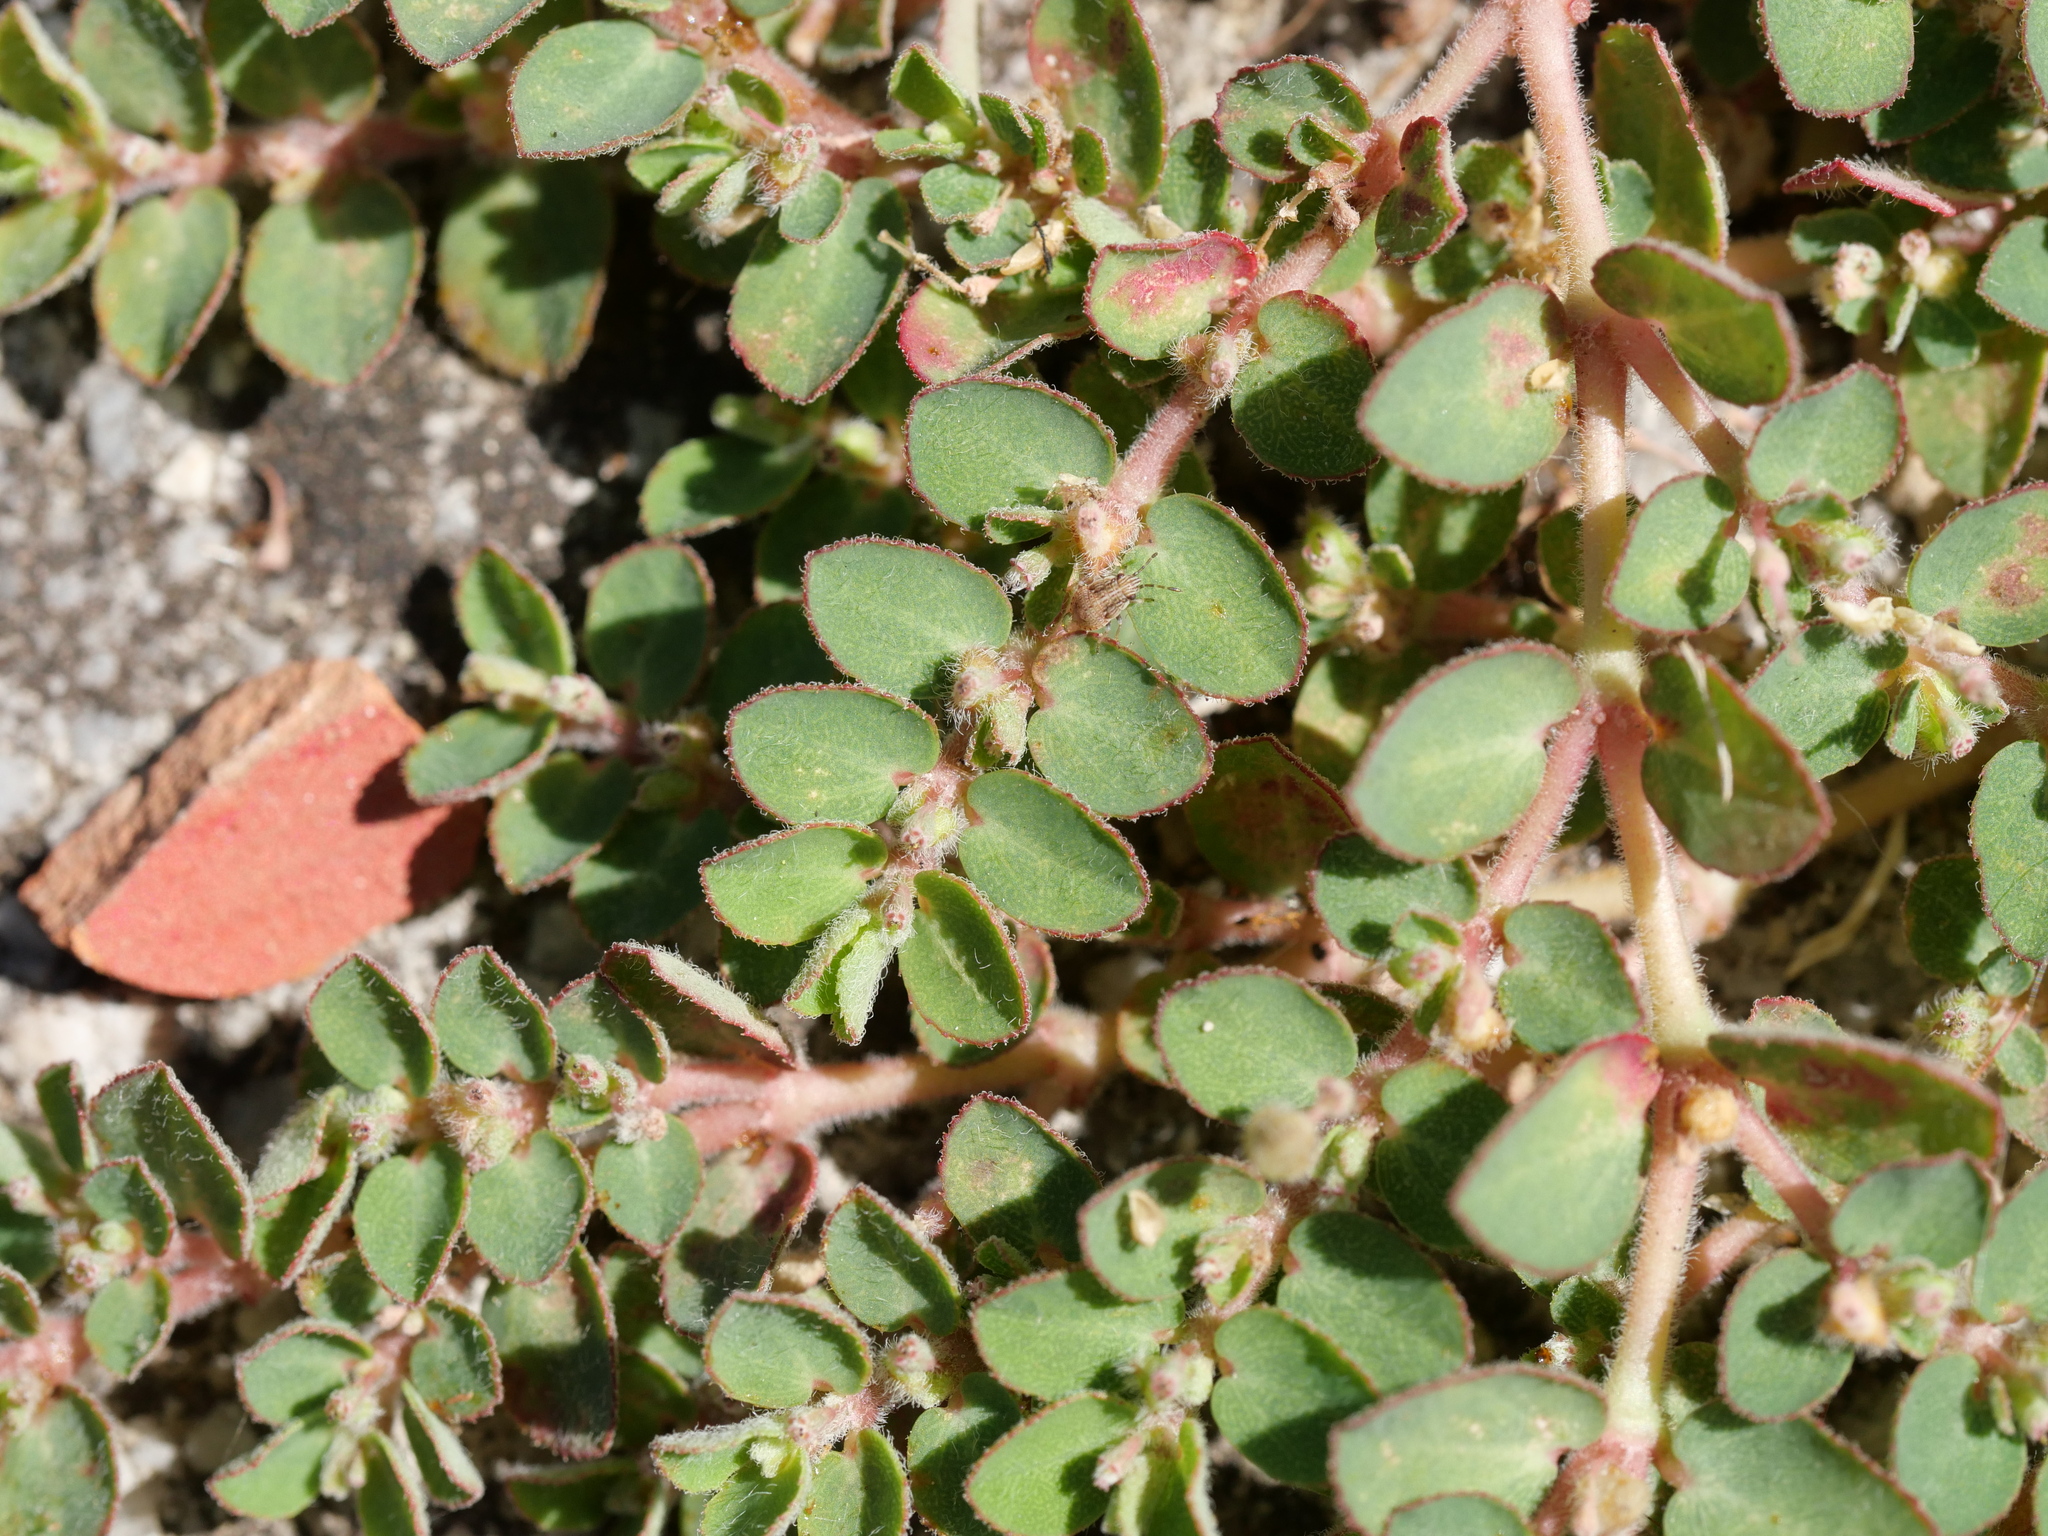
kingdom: Plantae
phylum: Tracheophyta
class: Magnoliopsida
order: Malpighiales
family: Euphorbiaceae
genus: Euphorbia
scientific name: Euphorbia prostrata
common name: Prostrate sandmat
